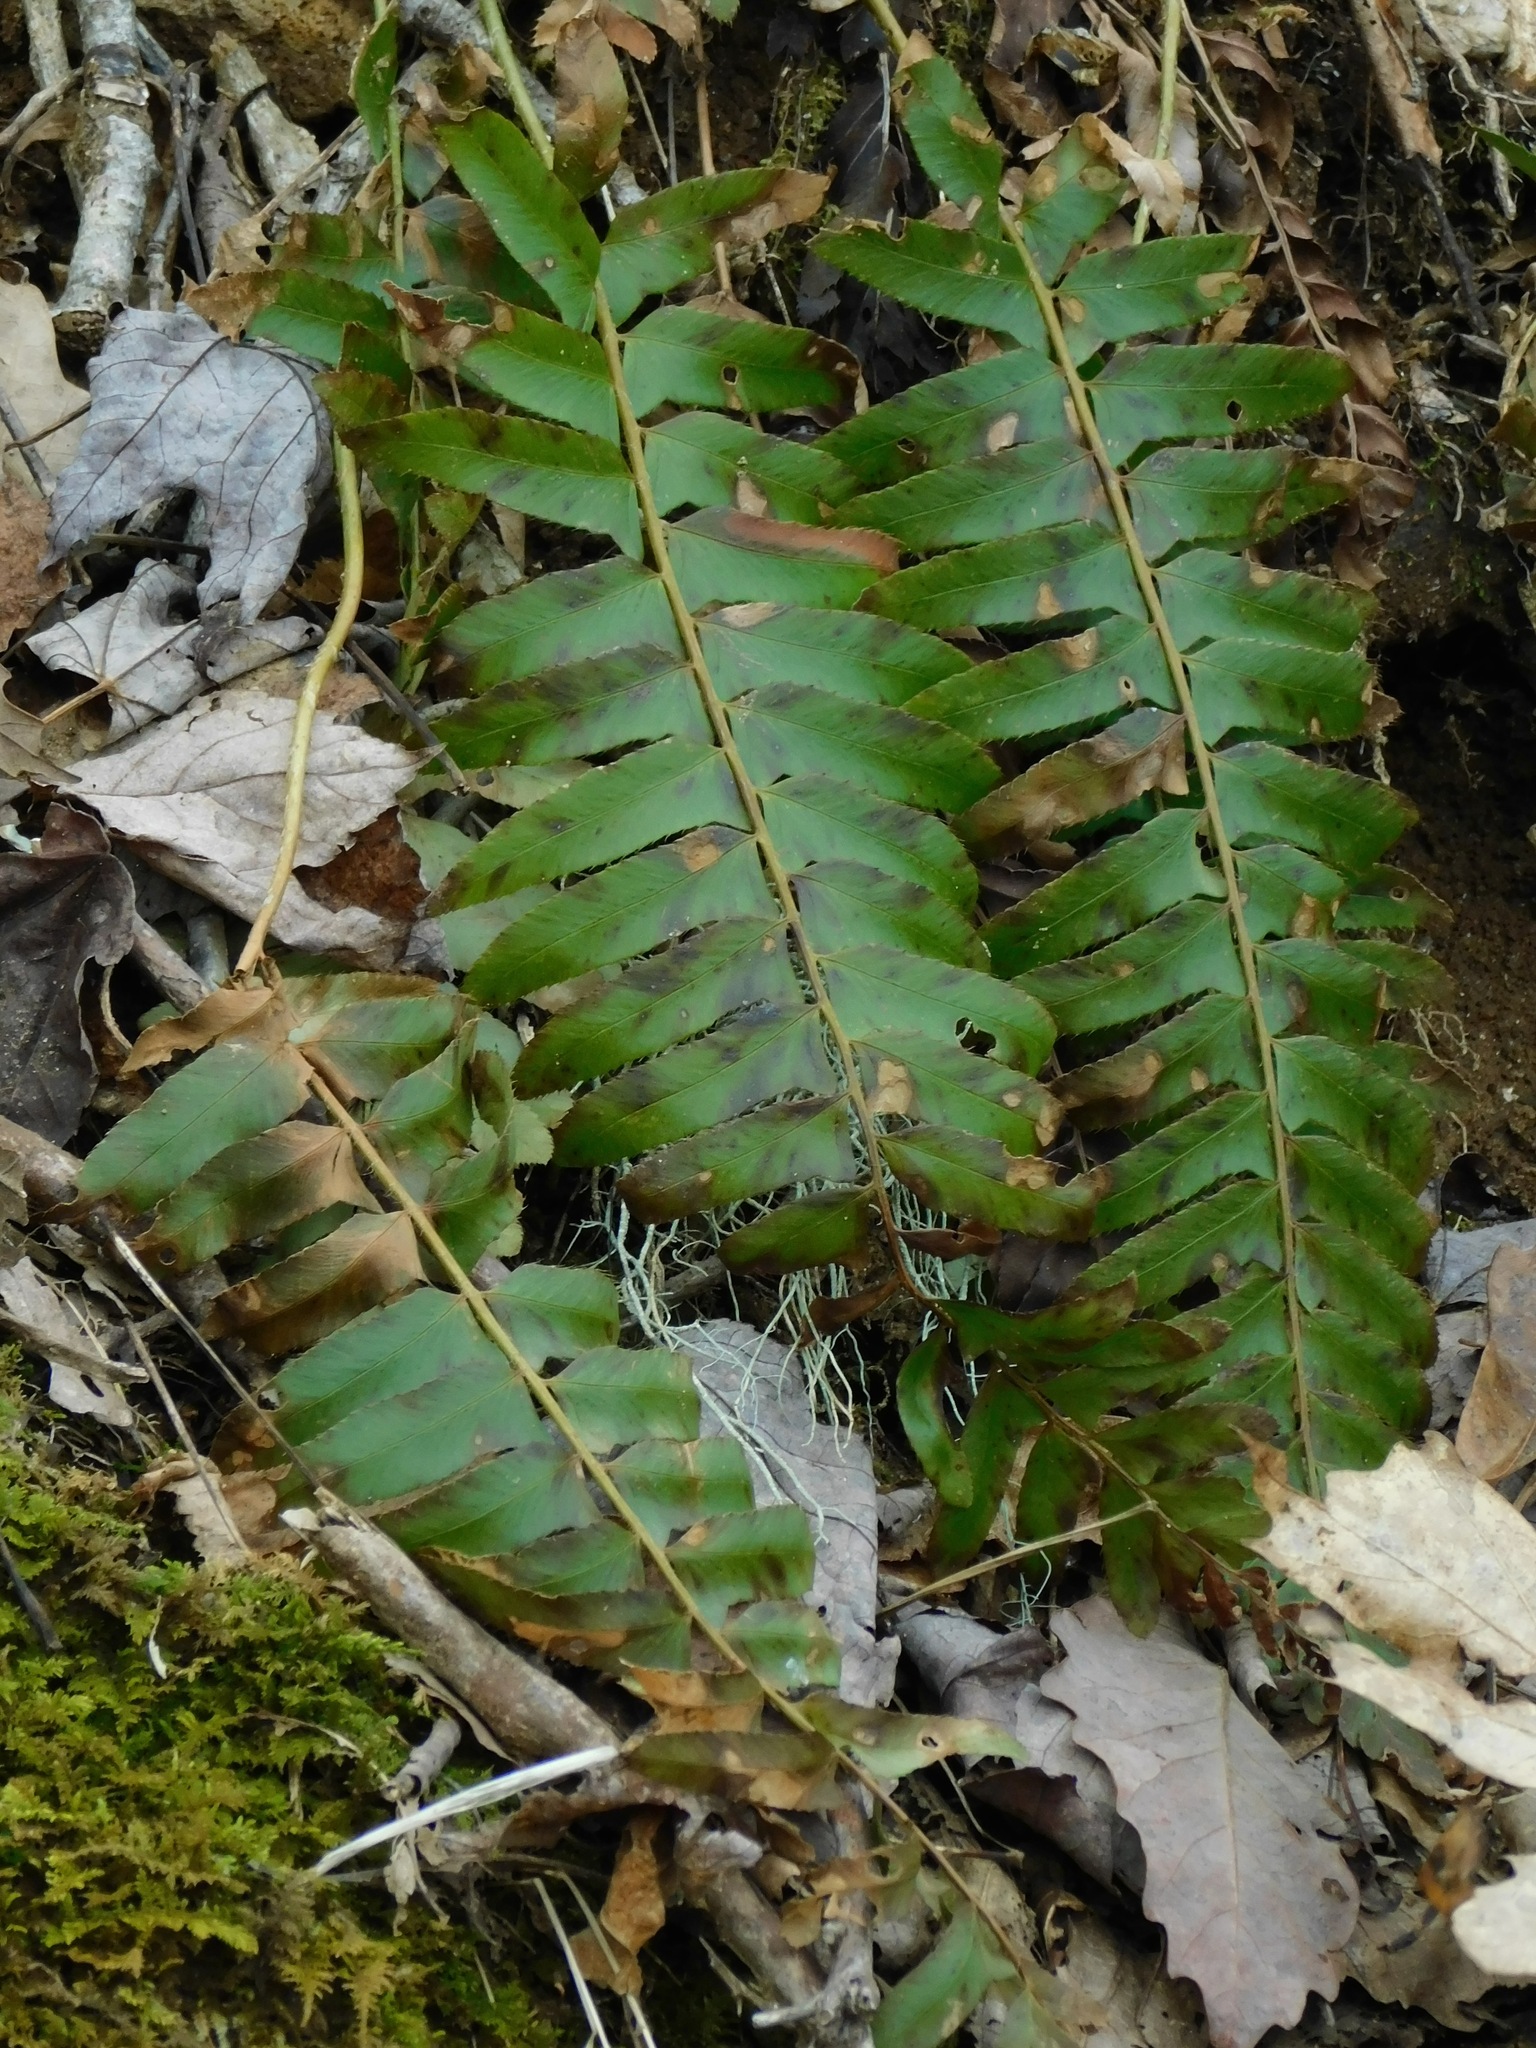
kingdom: Plantae
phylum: Tracheophyta
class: Polypodiopsida
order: Polypodiales
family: Dryopteridaceae
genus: Polystichum
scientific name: Polystichum acrostichoides
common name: Christmas fern
